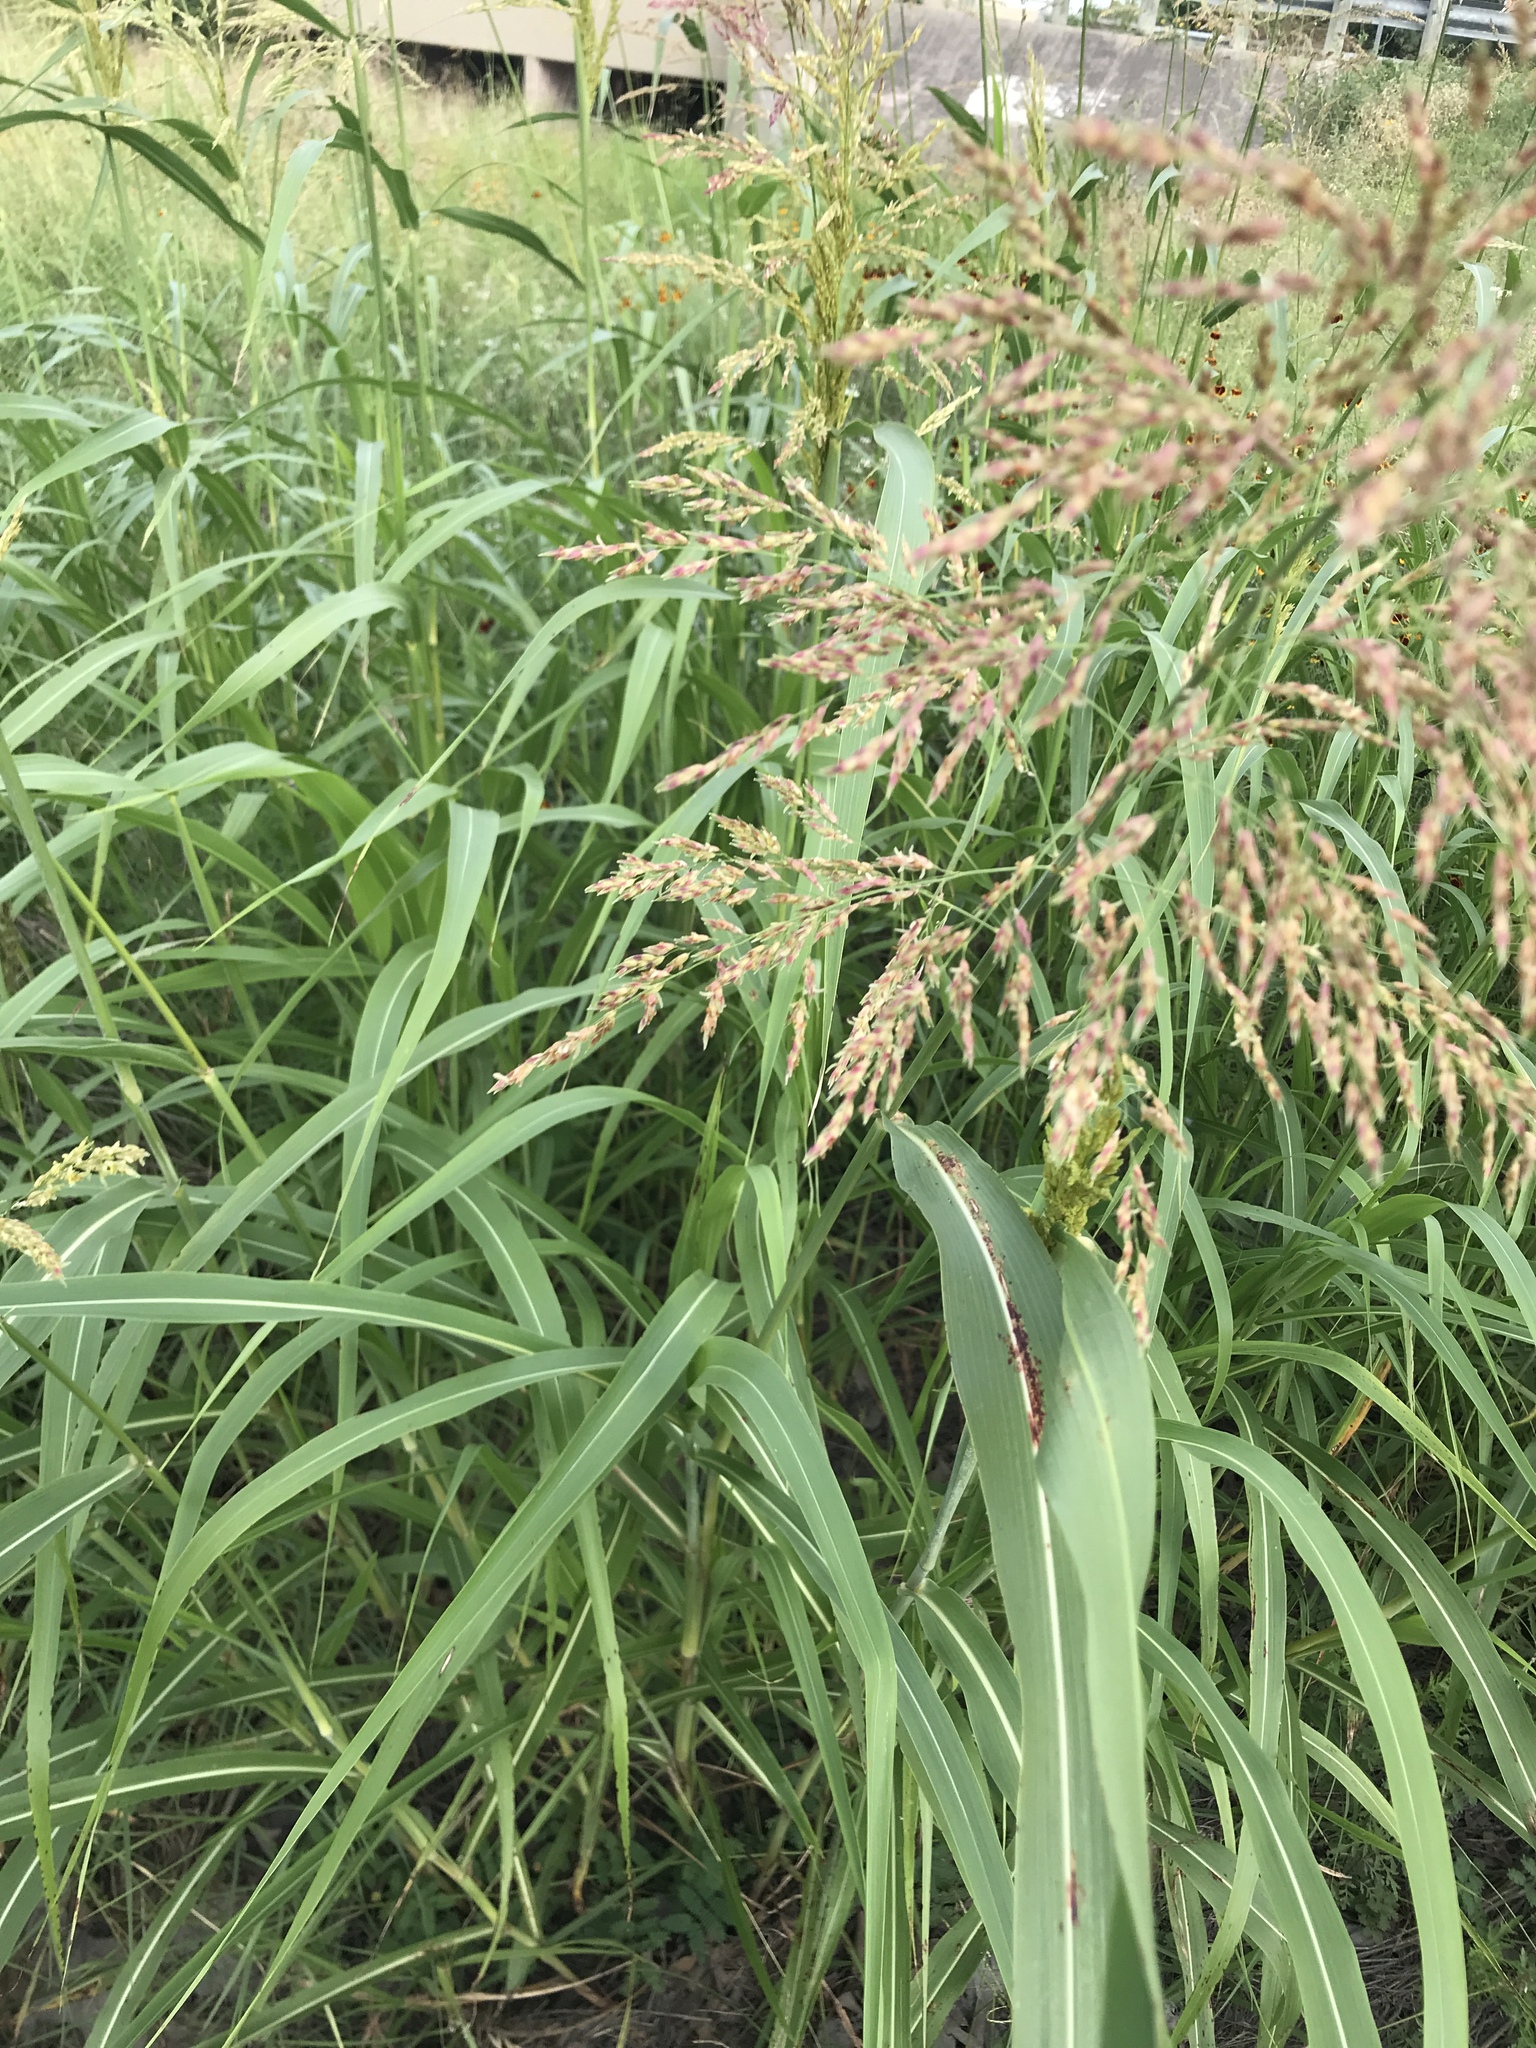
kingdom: Plantae
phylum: Tracheophyta
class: Liliopsida
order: Poales
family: Poaceae
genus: Sorghum
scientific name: Sorghum halepense
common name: Johnson-grass
